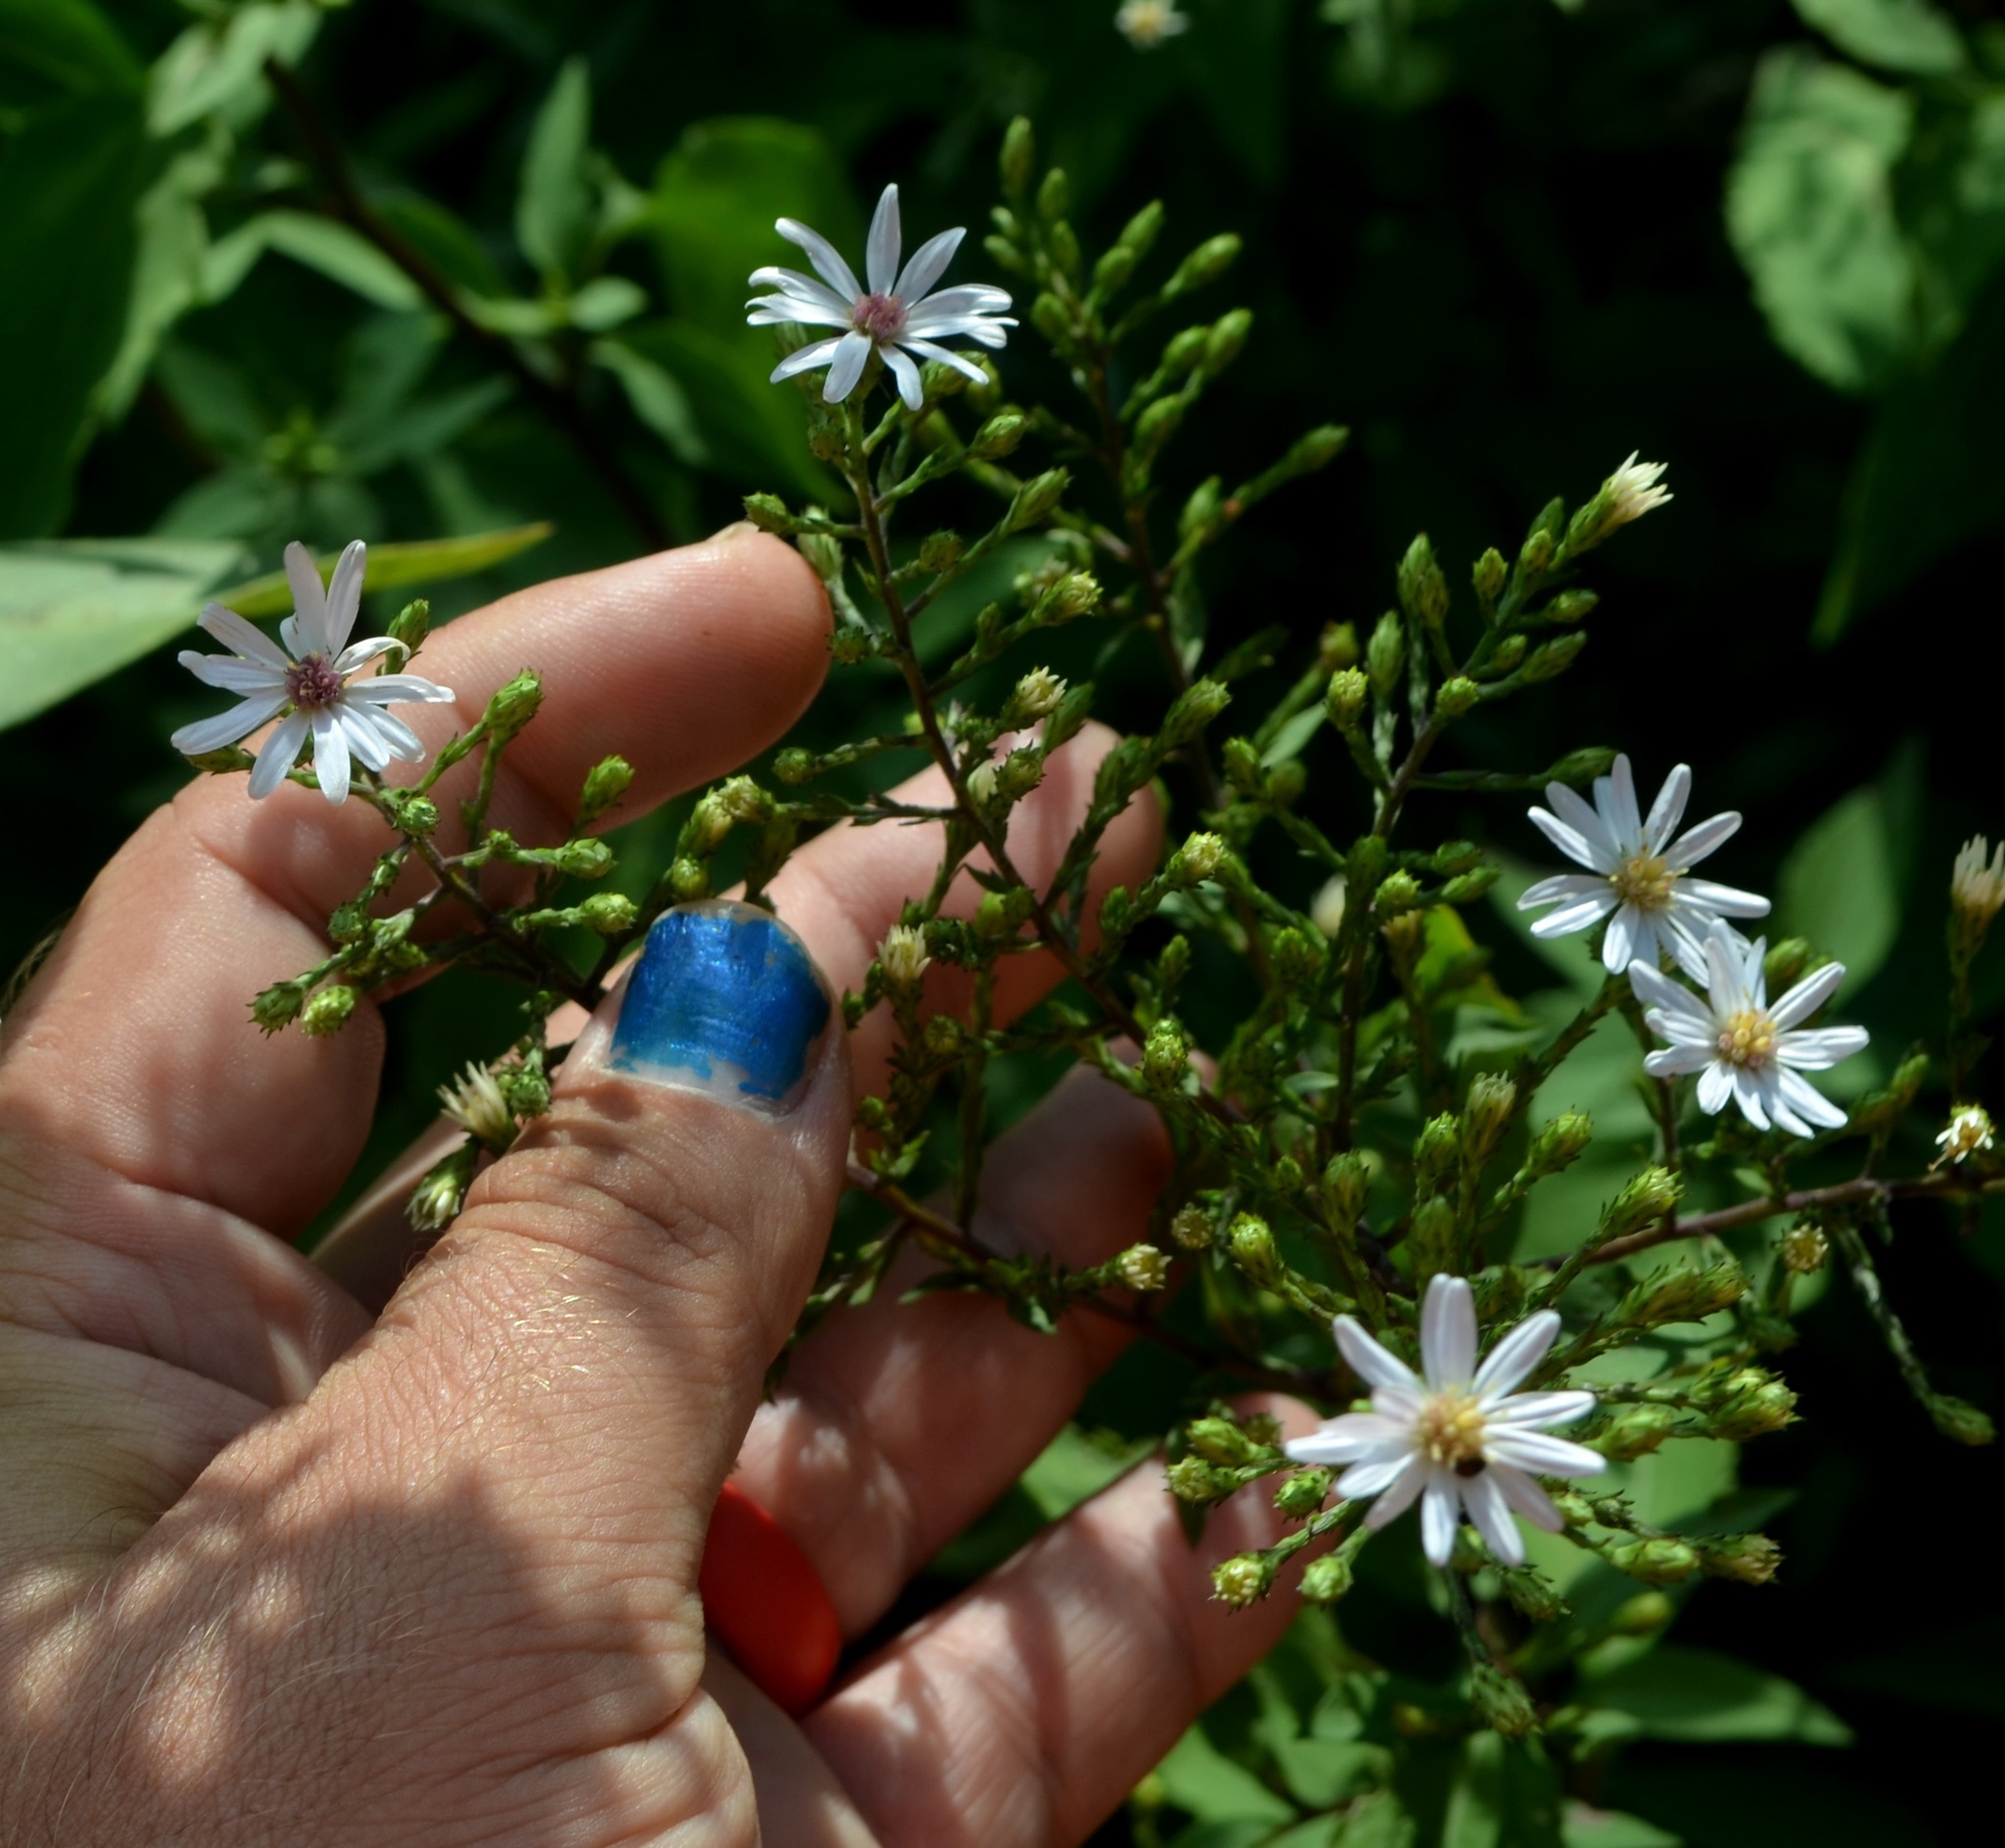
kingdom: Plantae
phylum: Tracheophyta
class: Magnoliopsida
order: Asterales
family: Asteraceae
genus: Symphyotrichum
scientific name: Symphyotrichum drummondii
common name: Drummond's aster
